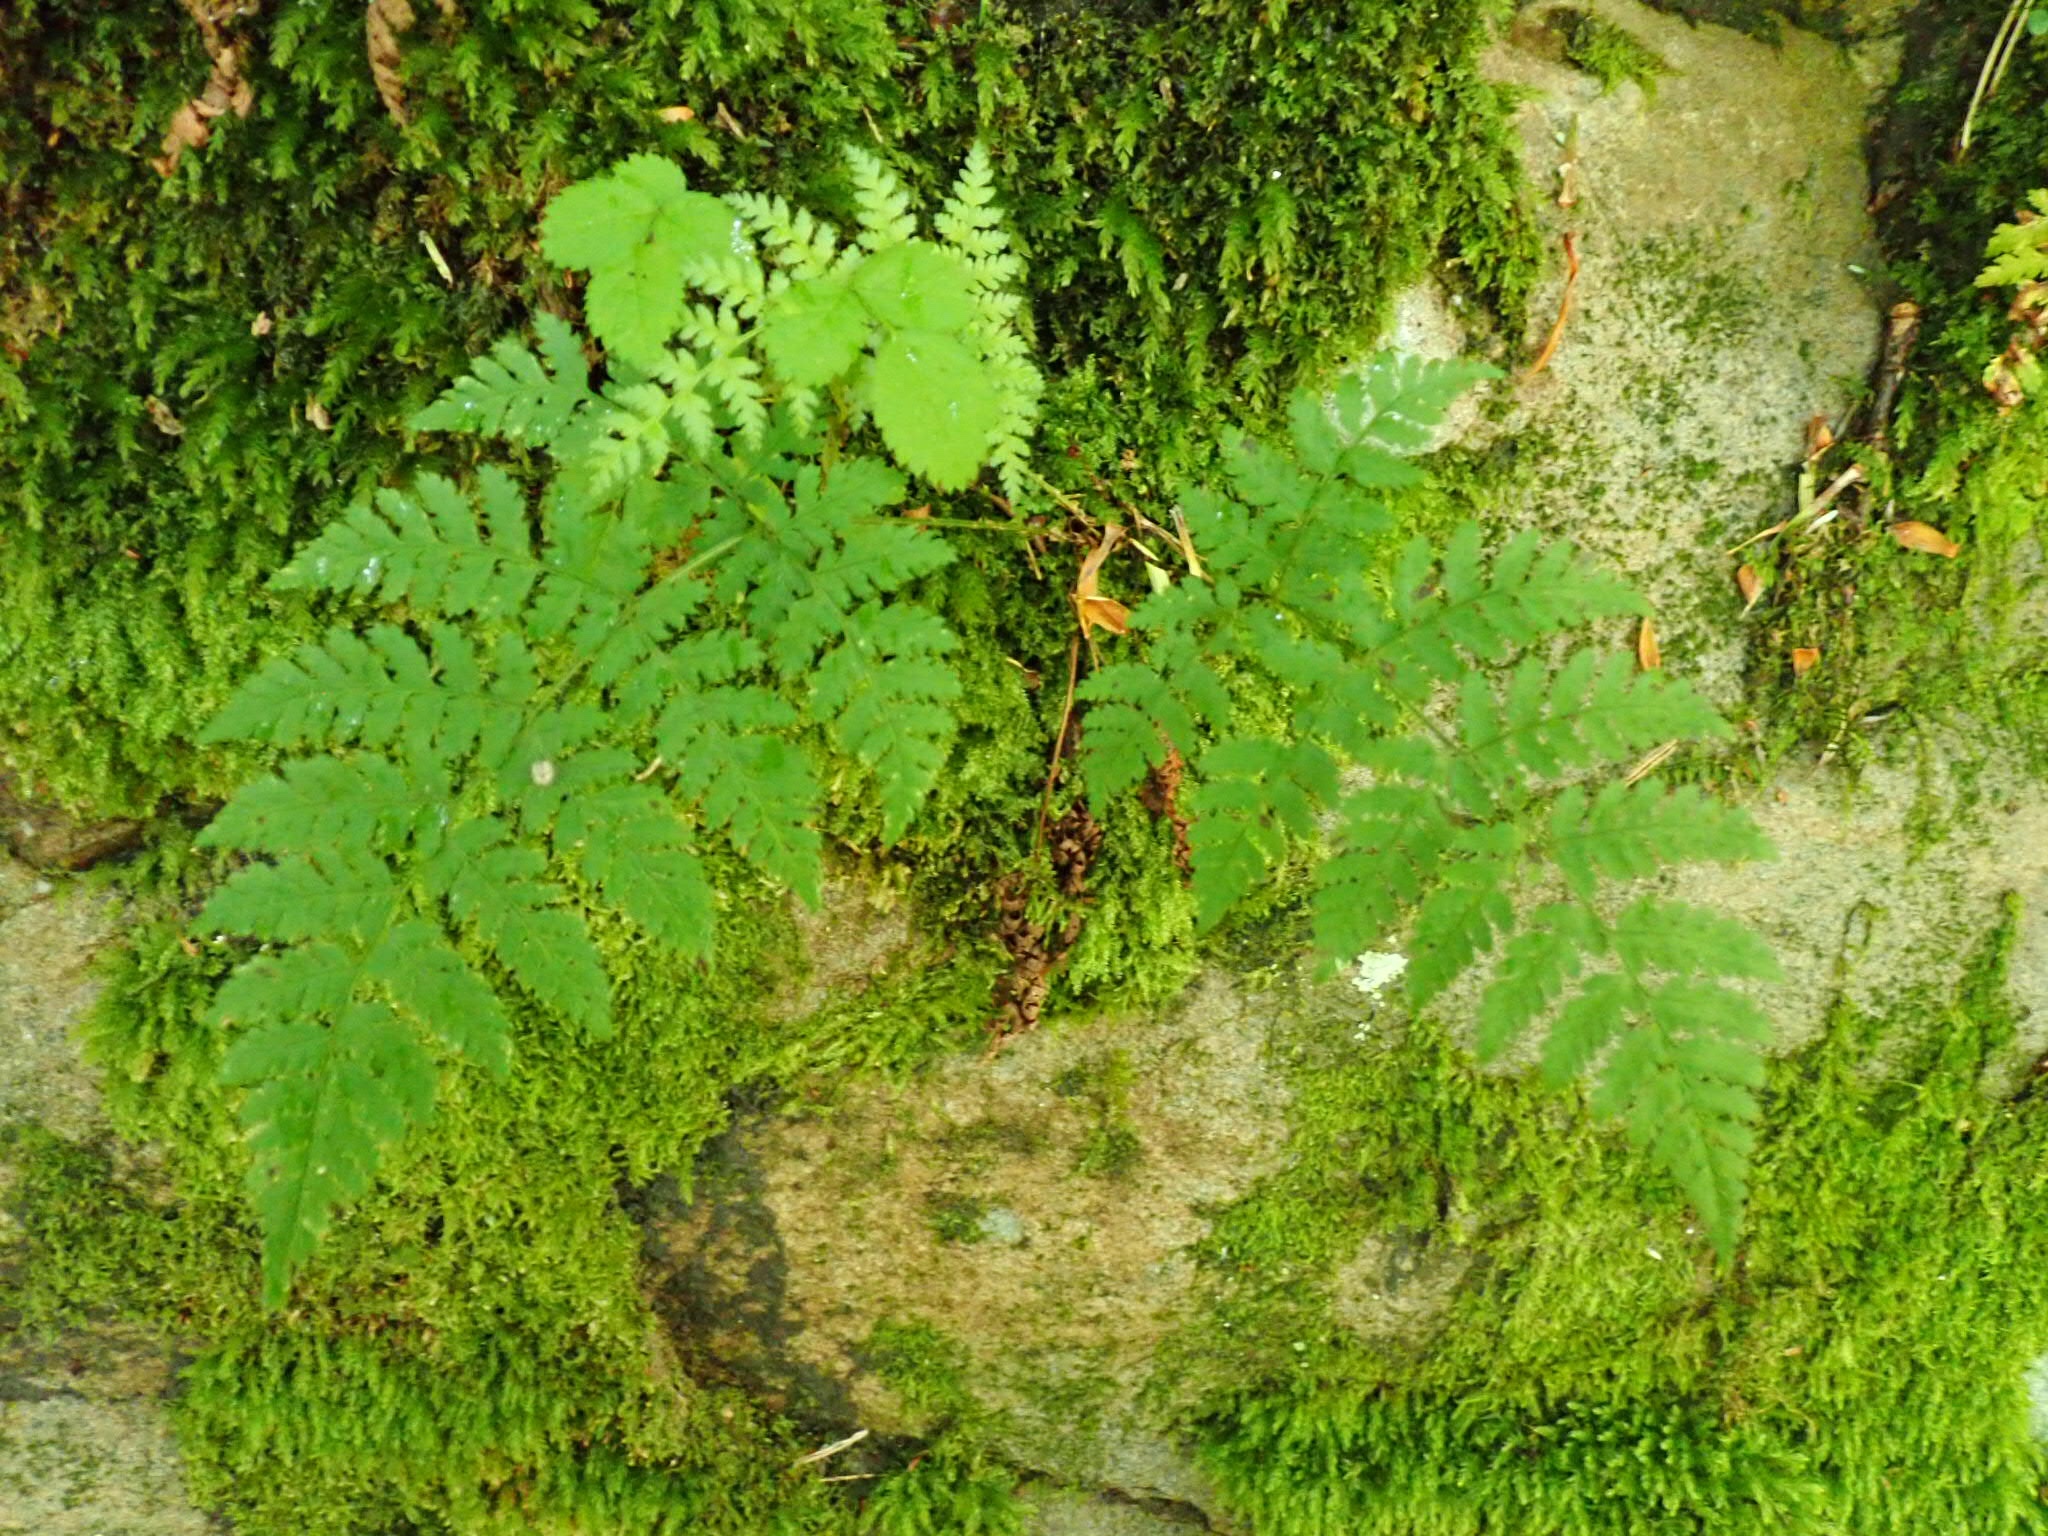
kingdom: Plantae
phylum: Tracheophyta
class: Polypodiopsida
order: Polypodiales
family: Dryopteridaceae
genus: Dryopteris
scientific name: Dryopteris intermedia
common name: Evergreen wood fern
